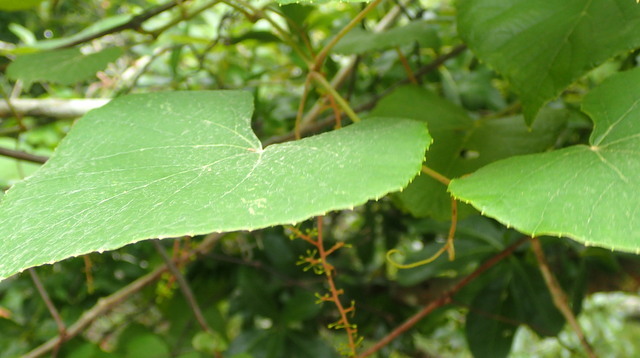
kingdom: Plantae
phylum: Tracheophyta
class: Magnoliopsida
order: Vitales
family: Vitaceae
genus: Vitis
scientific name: Vitis cinerea
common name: Ashy grape
